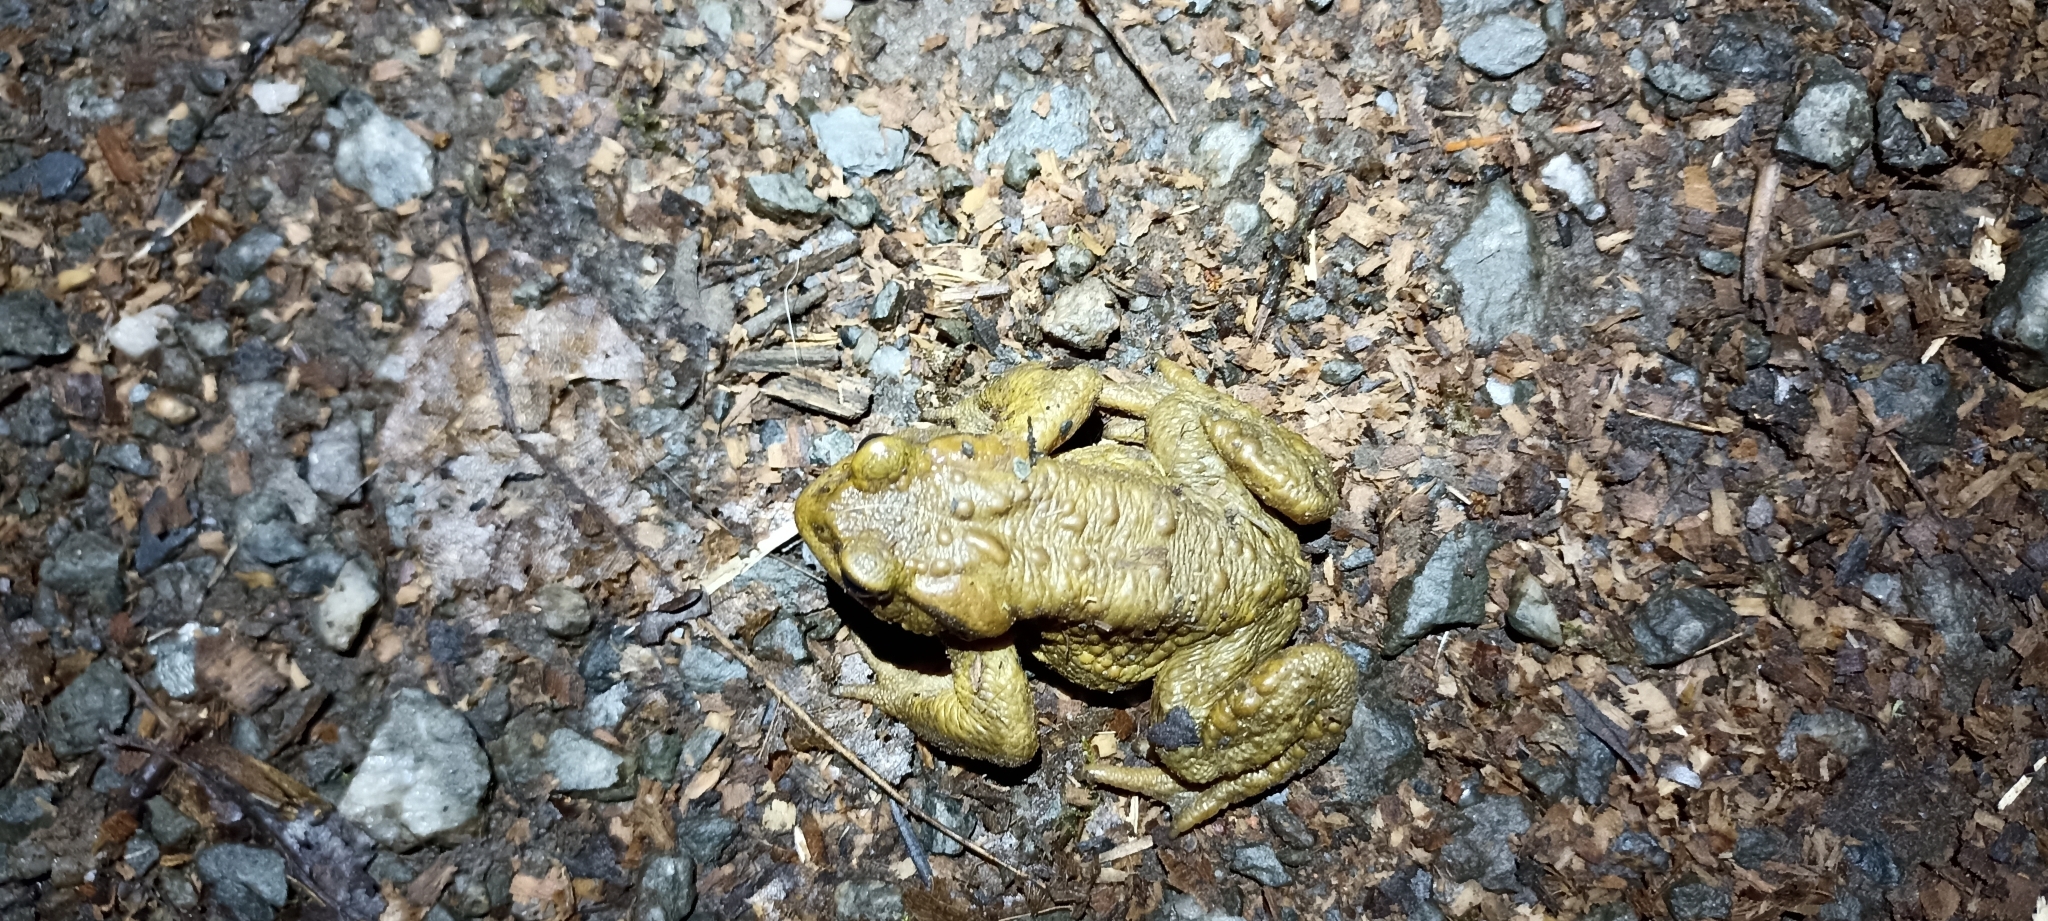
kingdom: Animalia
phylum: Chordata
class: Amphibia
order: Anura
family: Bufonidae
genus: Bufo
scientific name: Bufo spinosus
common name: Western common toad
